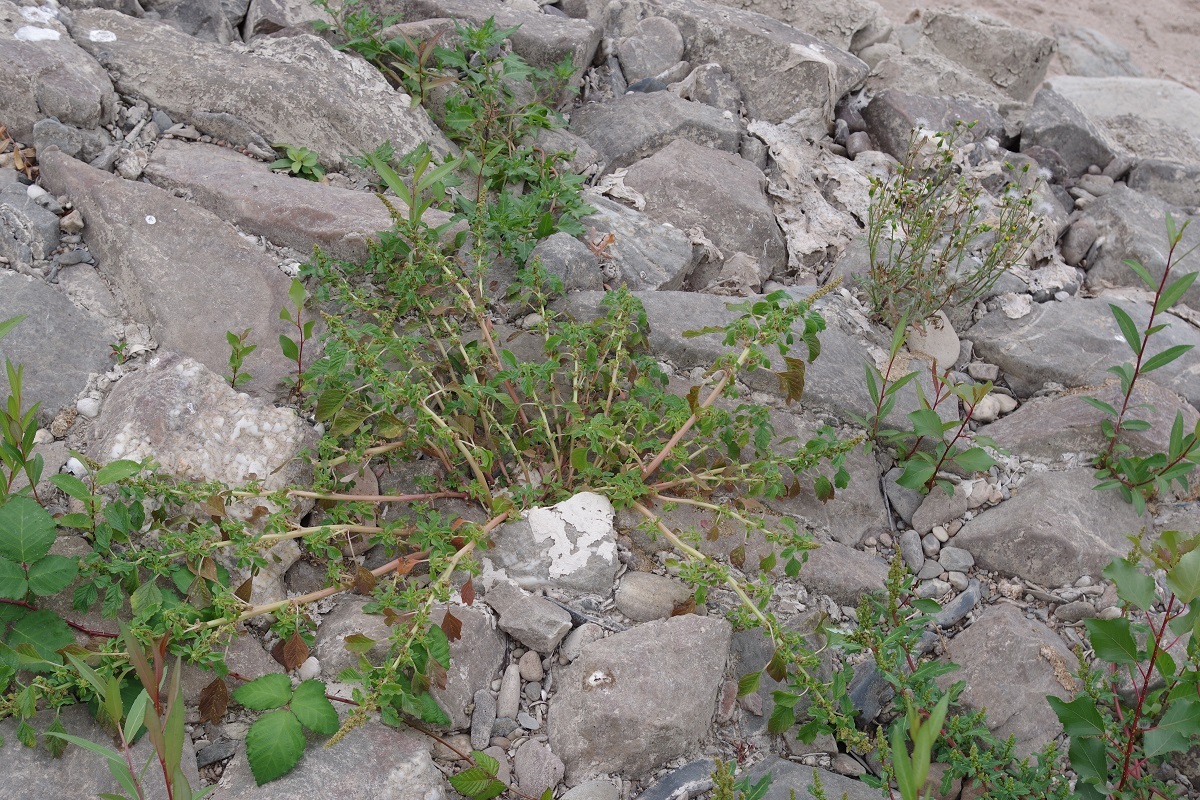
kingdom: Plantae
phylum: Tracheophyta
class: Magnoliopsida
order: Caryophyllales
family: Amaranthaceae
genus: Amaranthus
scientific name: Amaranthus blitum
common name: Purple amaranth
